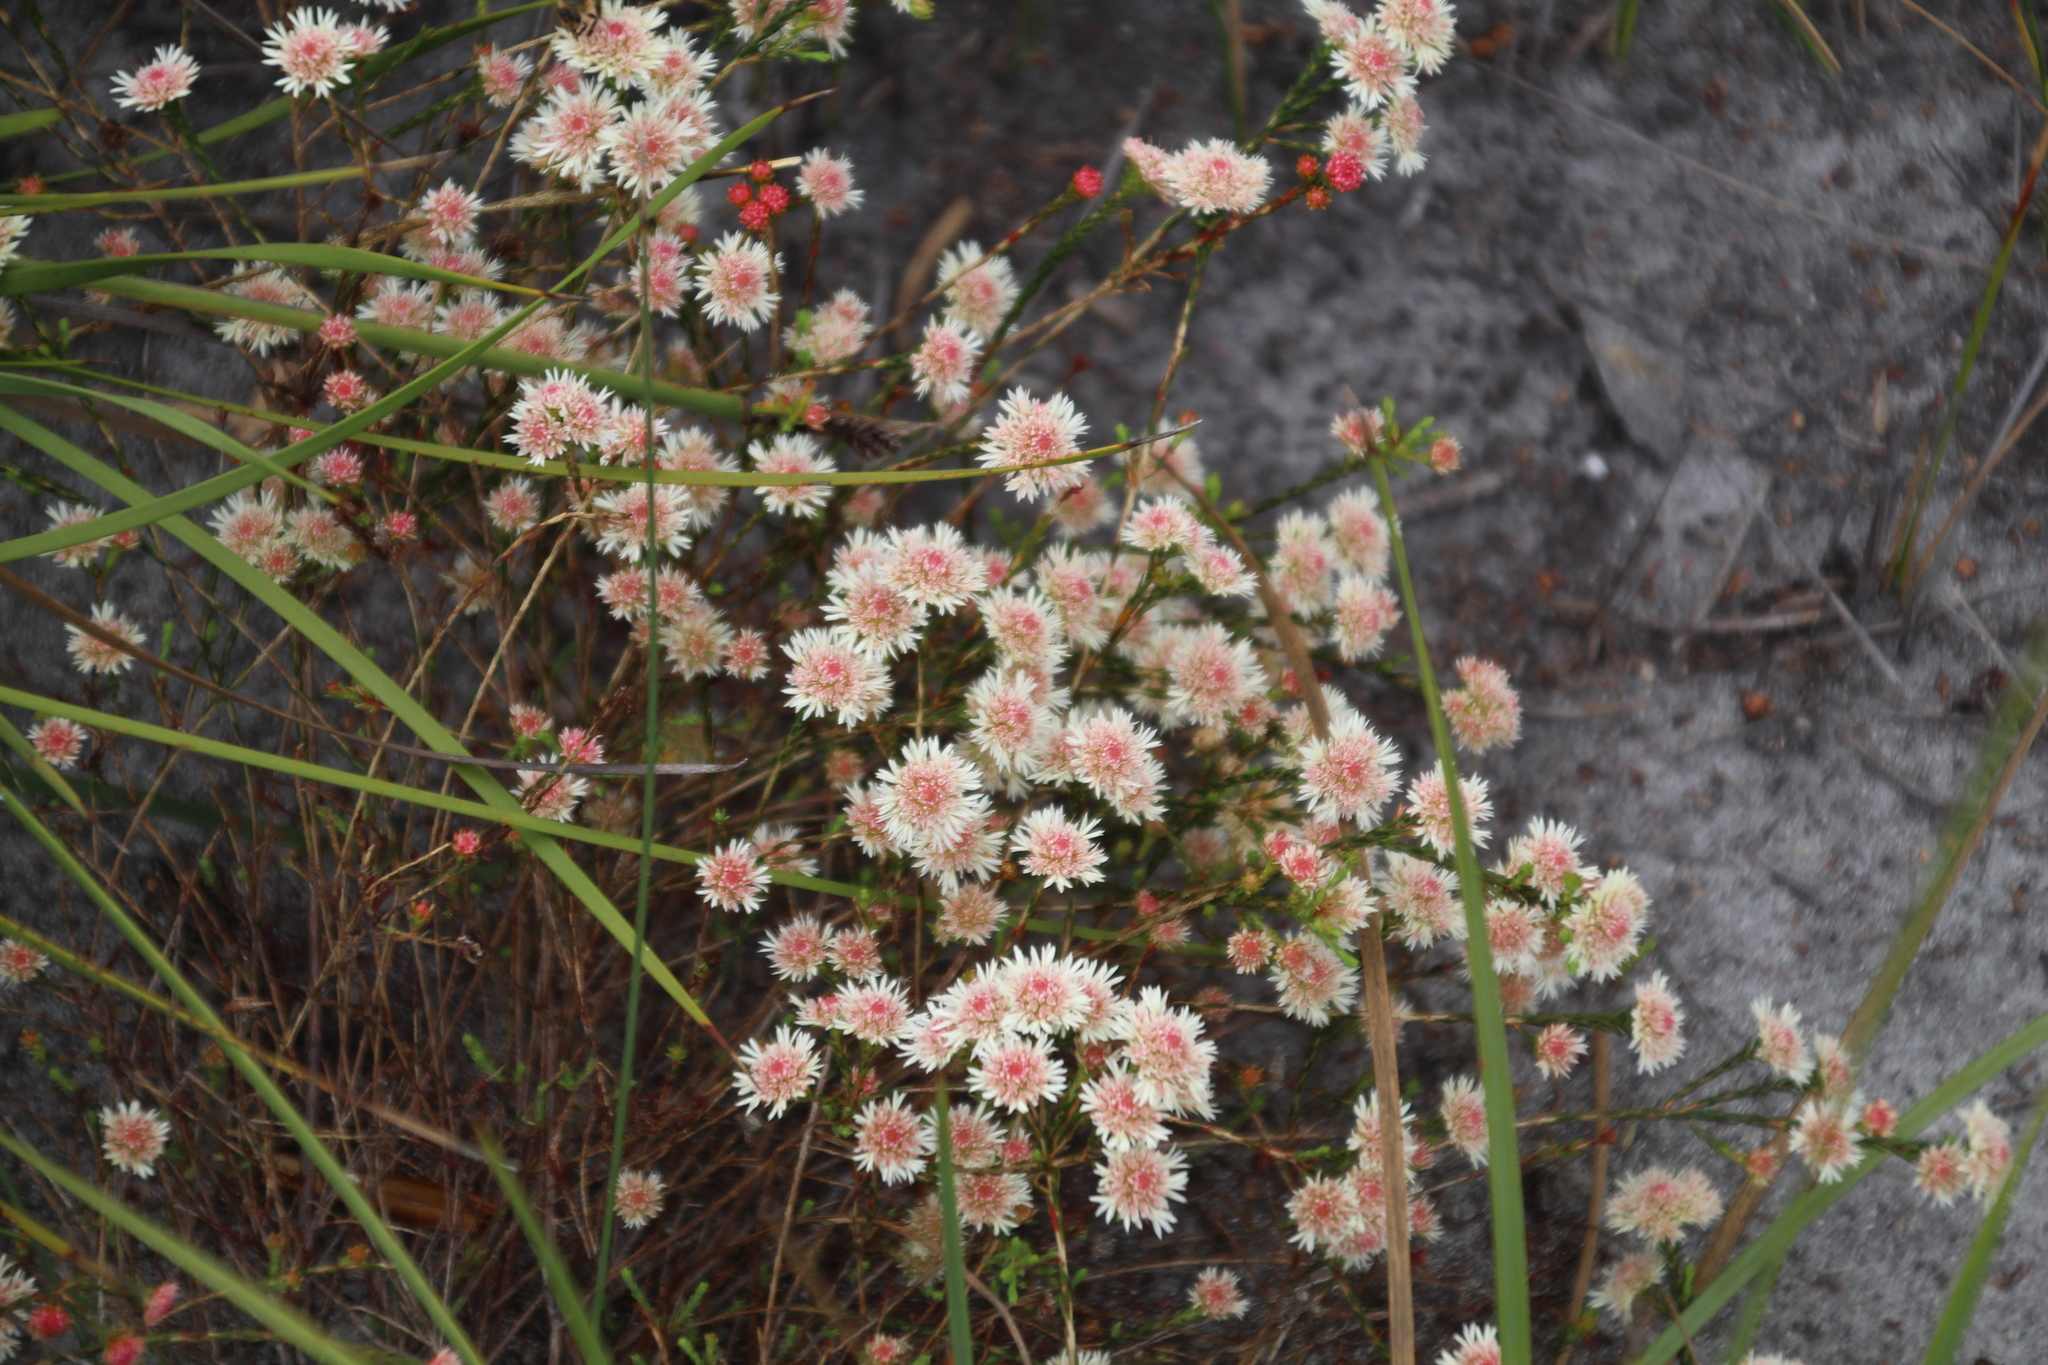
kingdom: Plantae
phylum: Tracheophyta
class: Magnoliopsida
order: Myrtales
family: Myrtaceae
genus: Actinodium
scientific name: Actinodium cunninghamii
